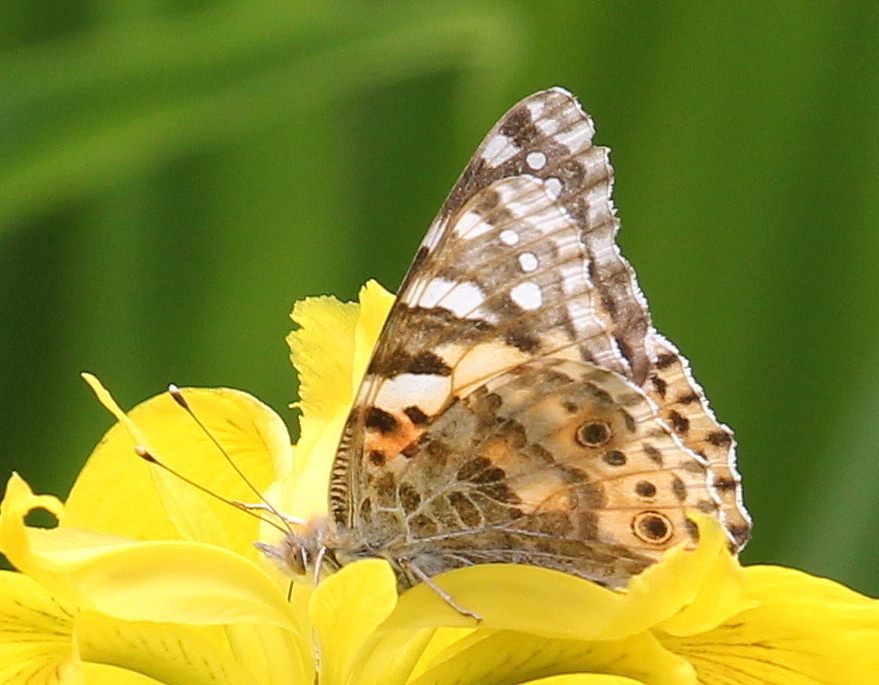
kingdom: Animalia
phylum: Arthropoda
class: Insecta
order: Lepidoptera
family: Nymphalidae
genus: Vanessa
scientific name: Vanessa cardui
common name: Painted lady
